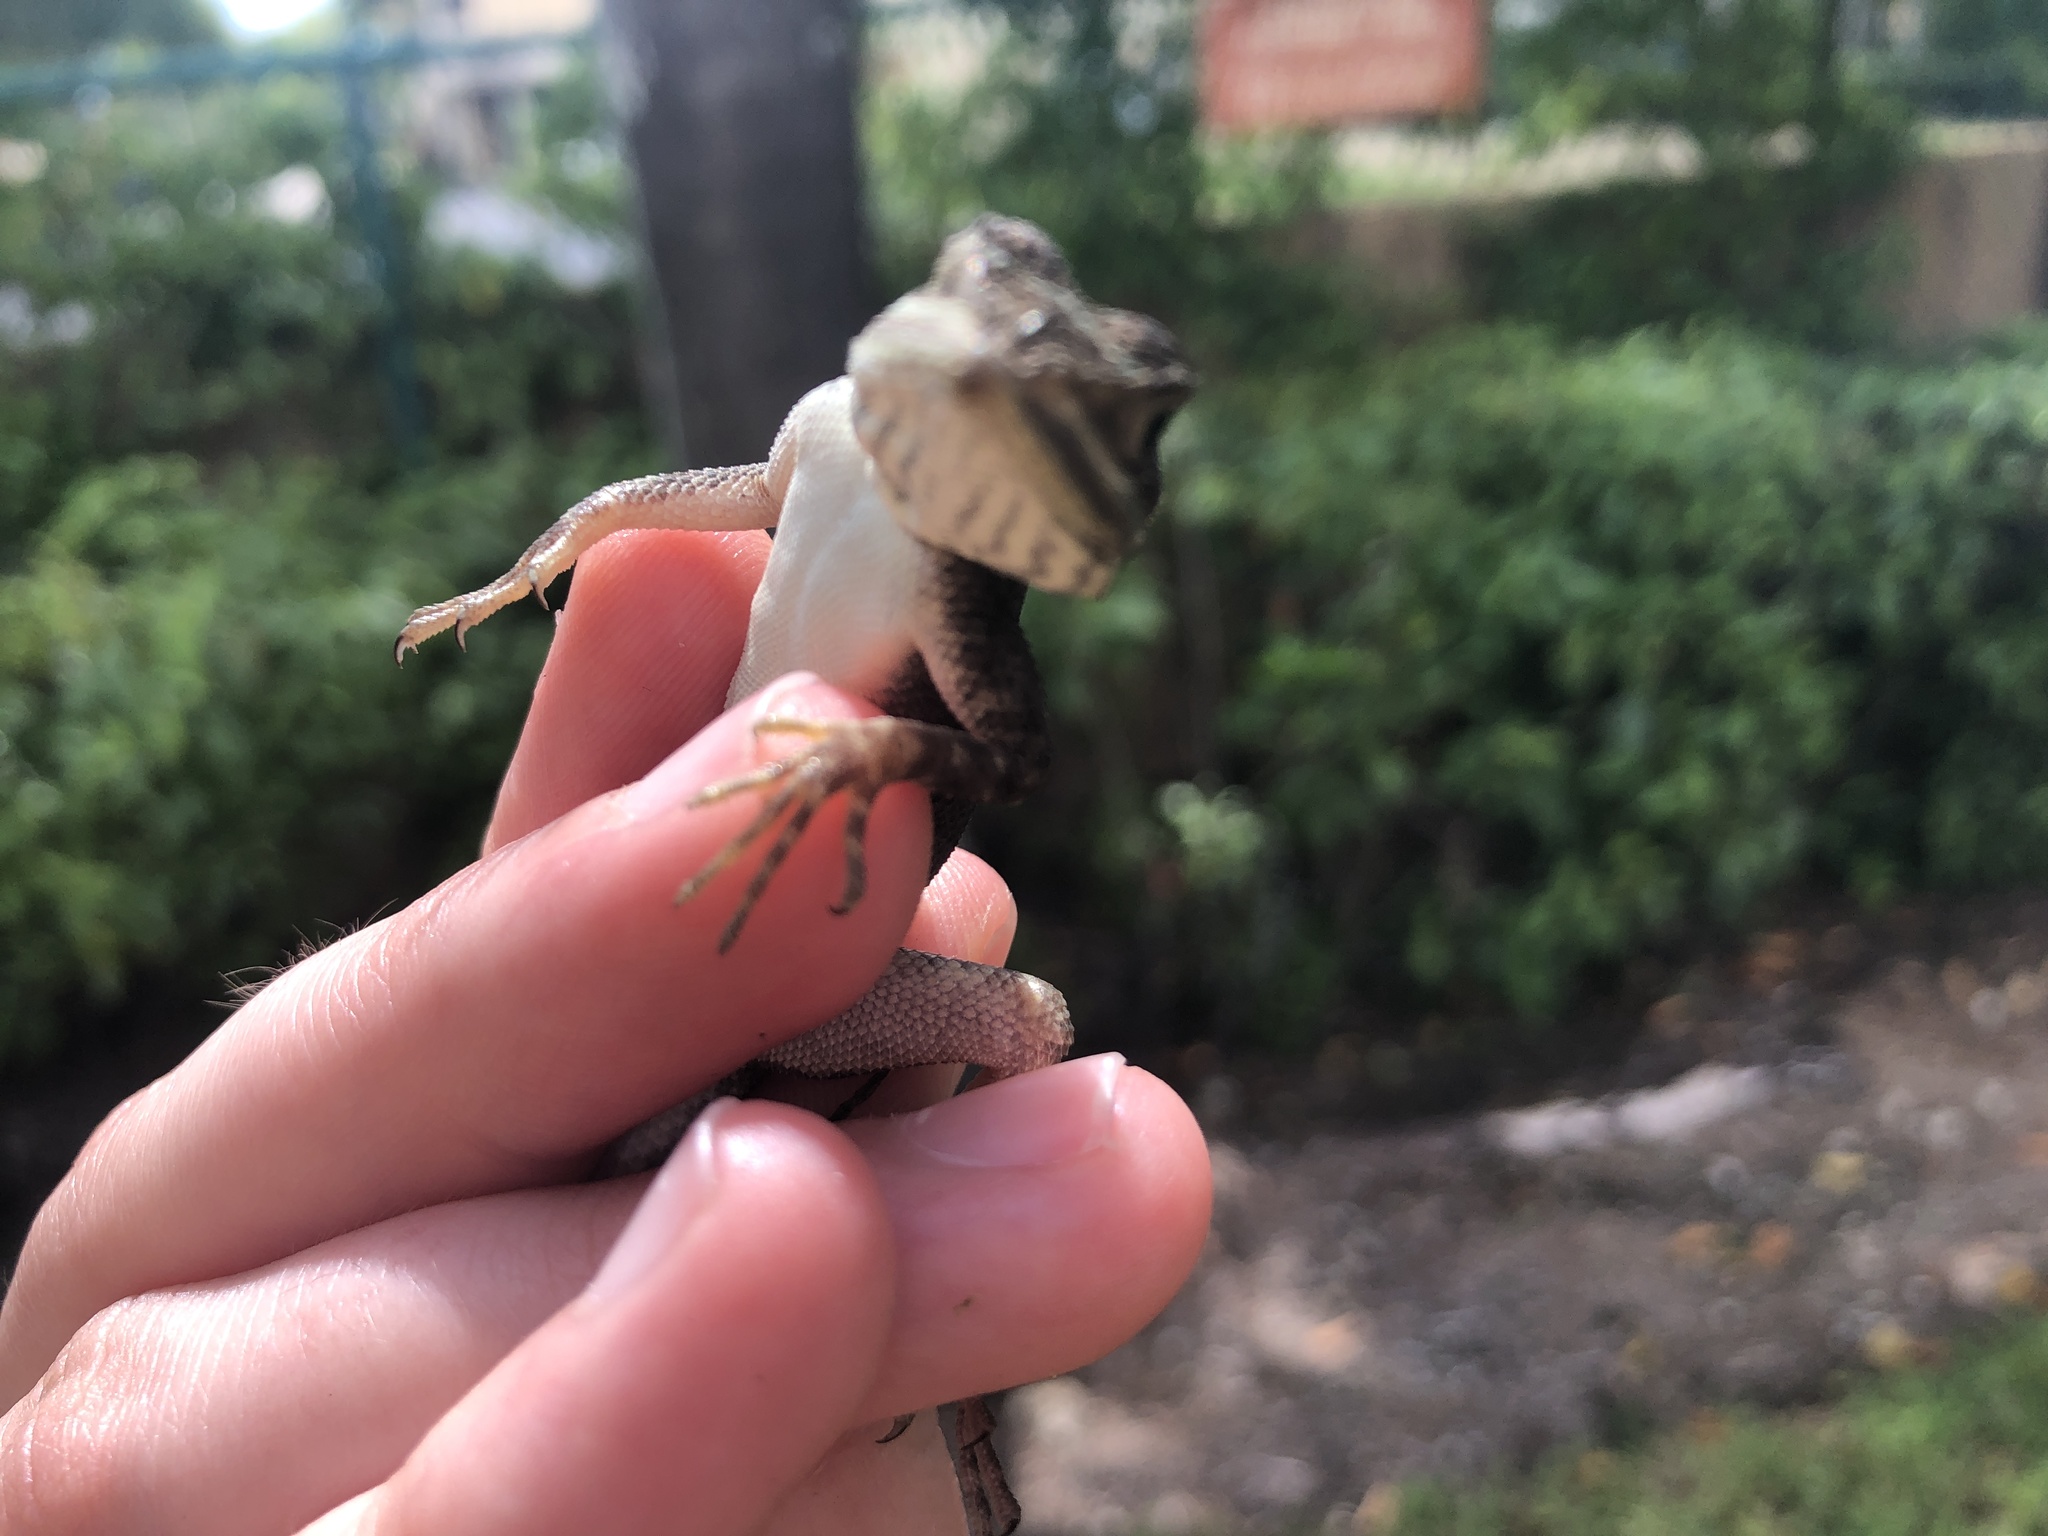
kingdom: Animalia
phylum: Chordata
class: Squamata
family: Agamidae
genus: Agama
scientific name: Agama picticauda
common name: Red-headed agama
